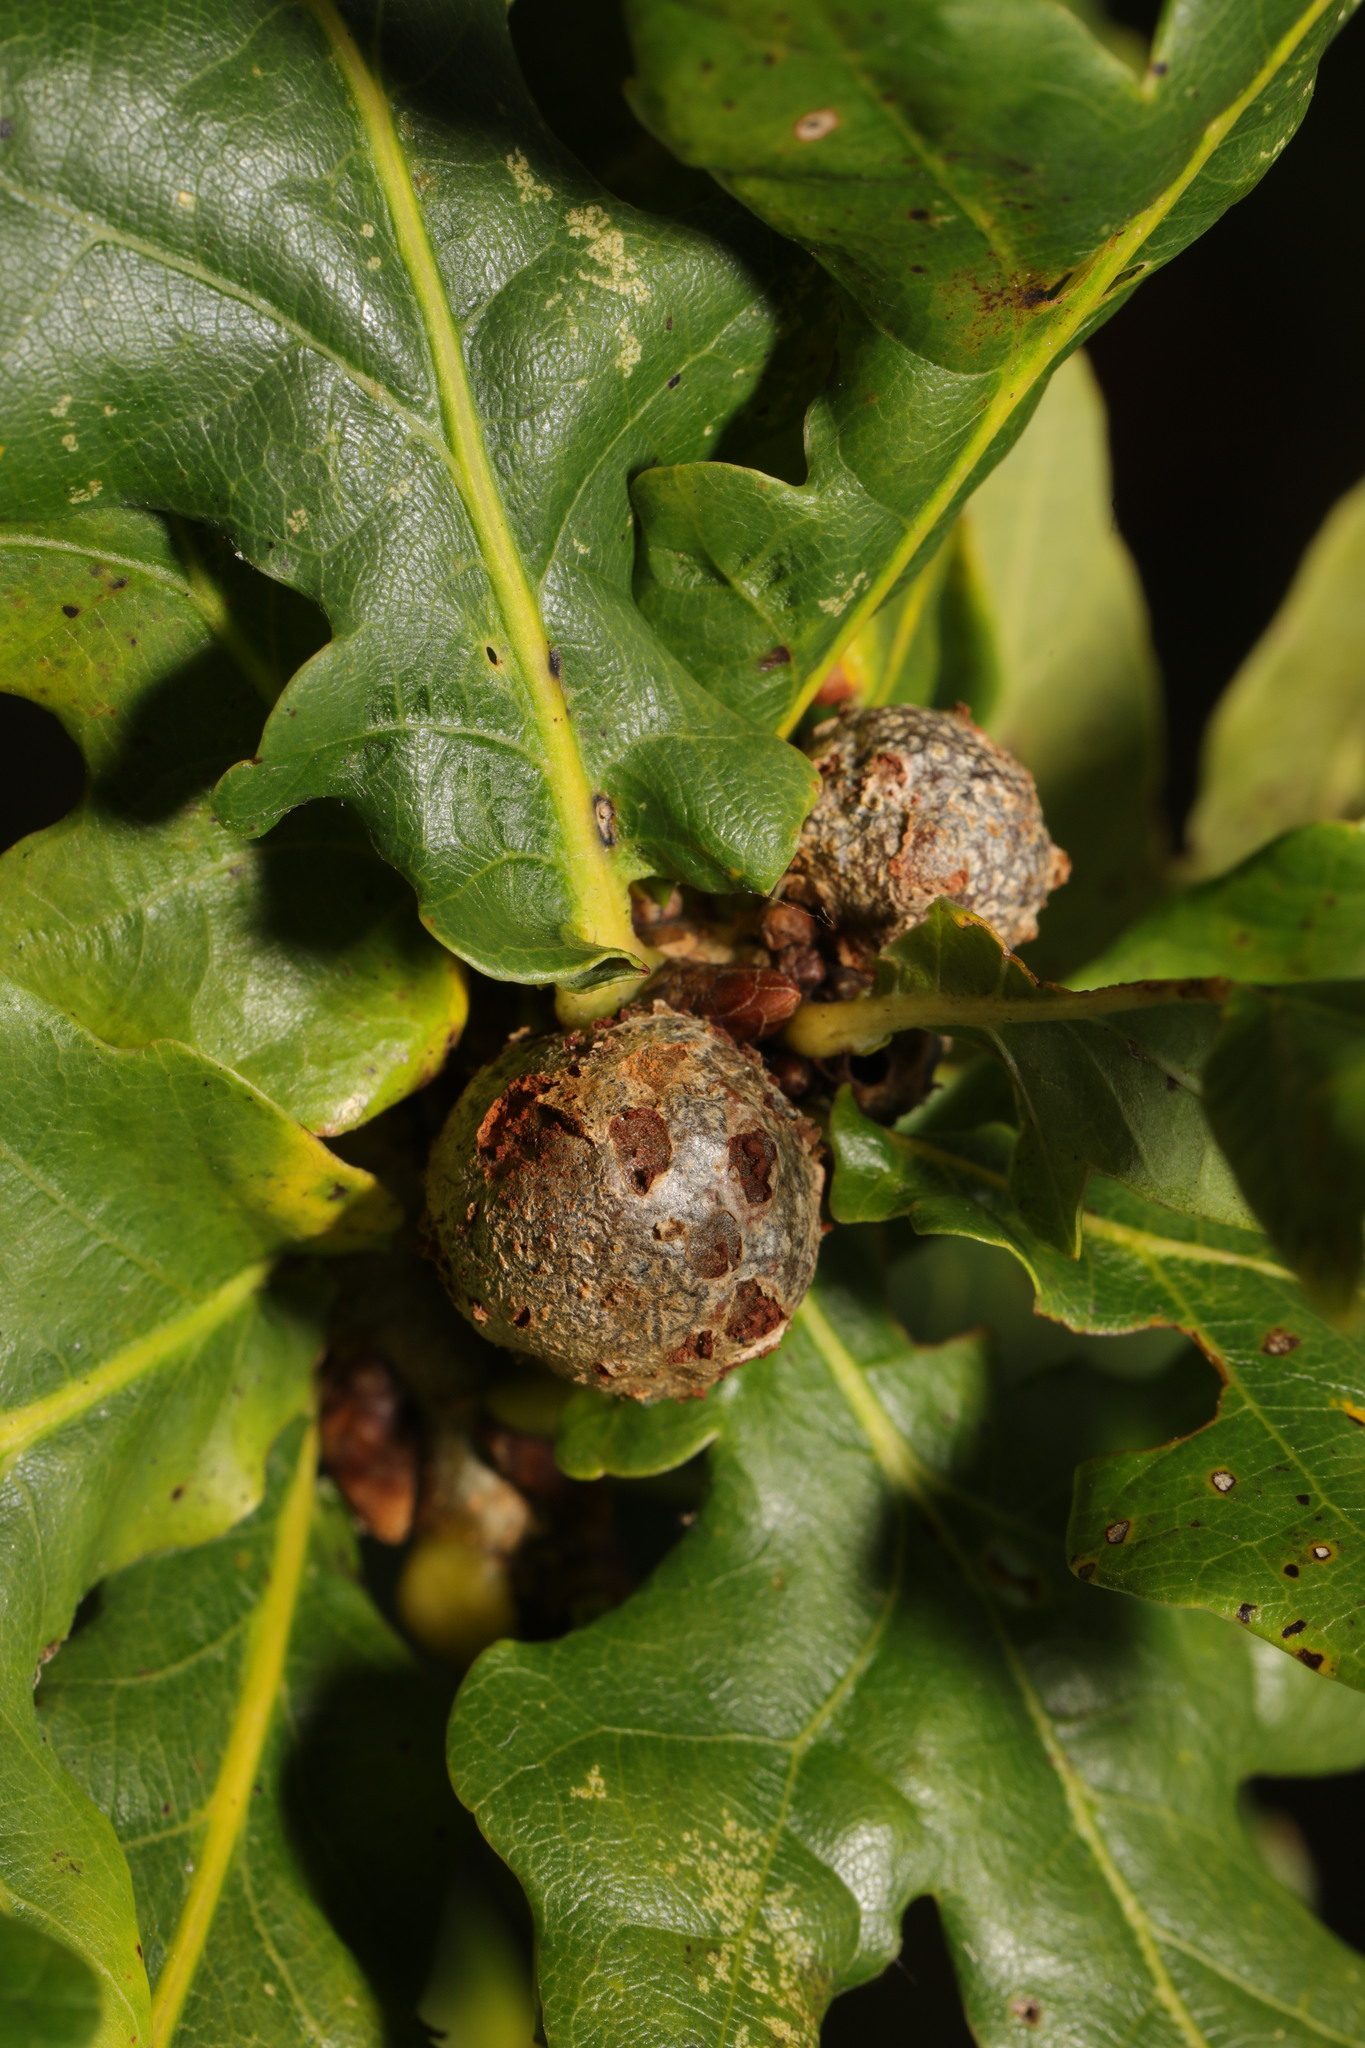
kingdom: Animalia
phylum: Arthropoda
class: Insecta
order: Hymenoptera
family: Cynipidae
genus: Andricus
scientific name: Andricus lignicolus
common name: Cola-nut gall
